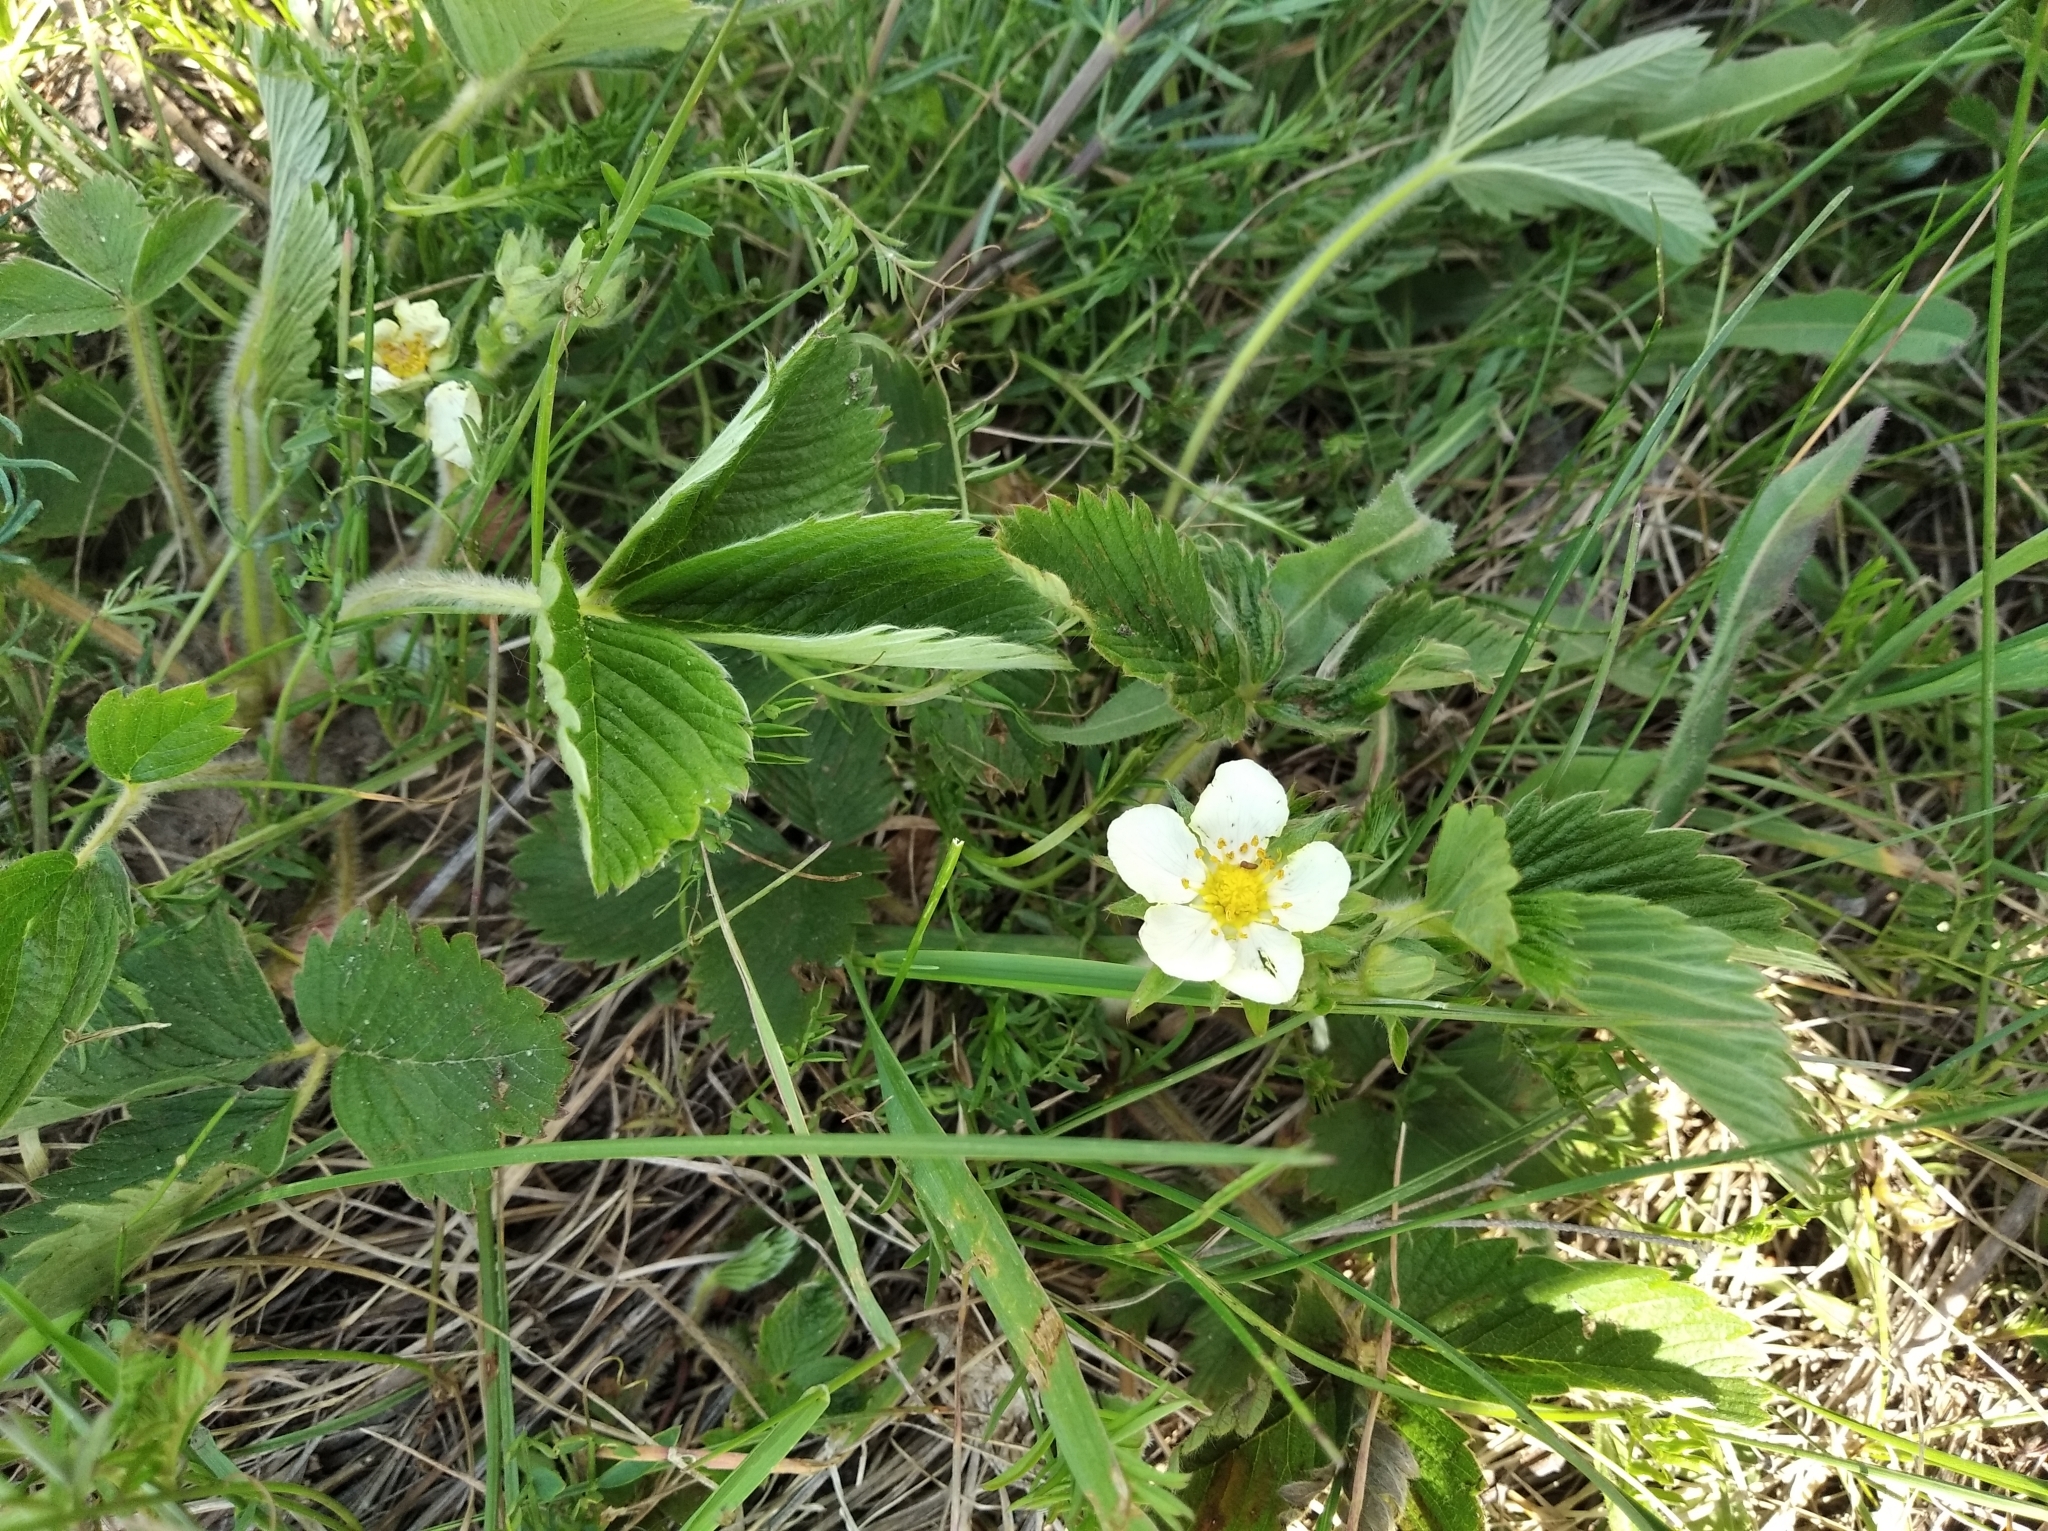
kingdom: Plantae
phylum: Tracheophyta
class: Magnoliopsida
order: Rosales
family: Rosaceae
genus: Fragaria
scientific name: Fragaria viridis
